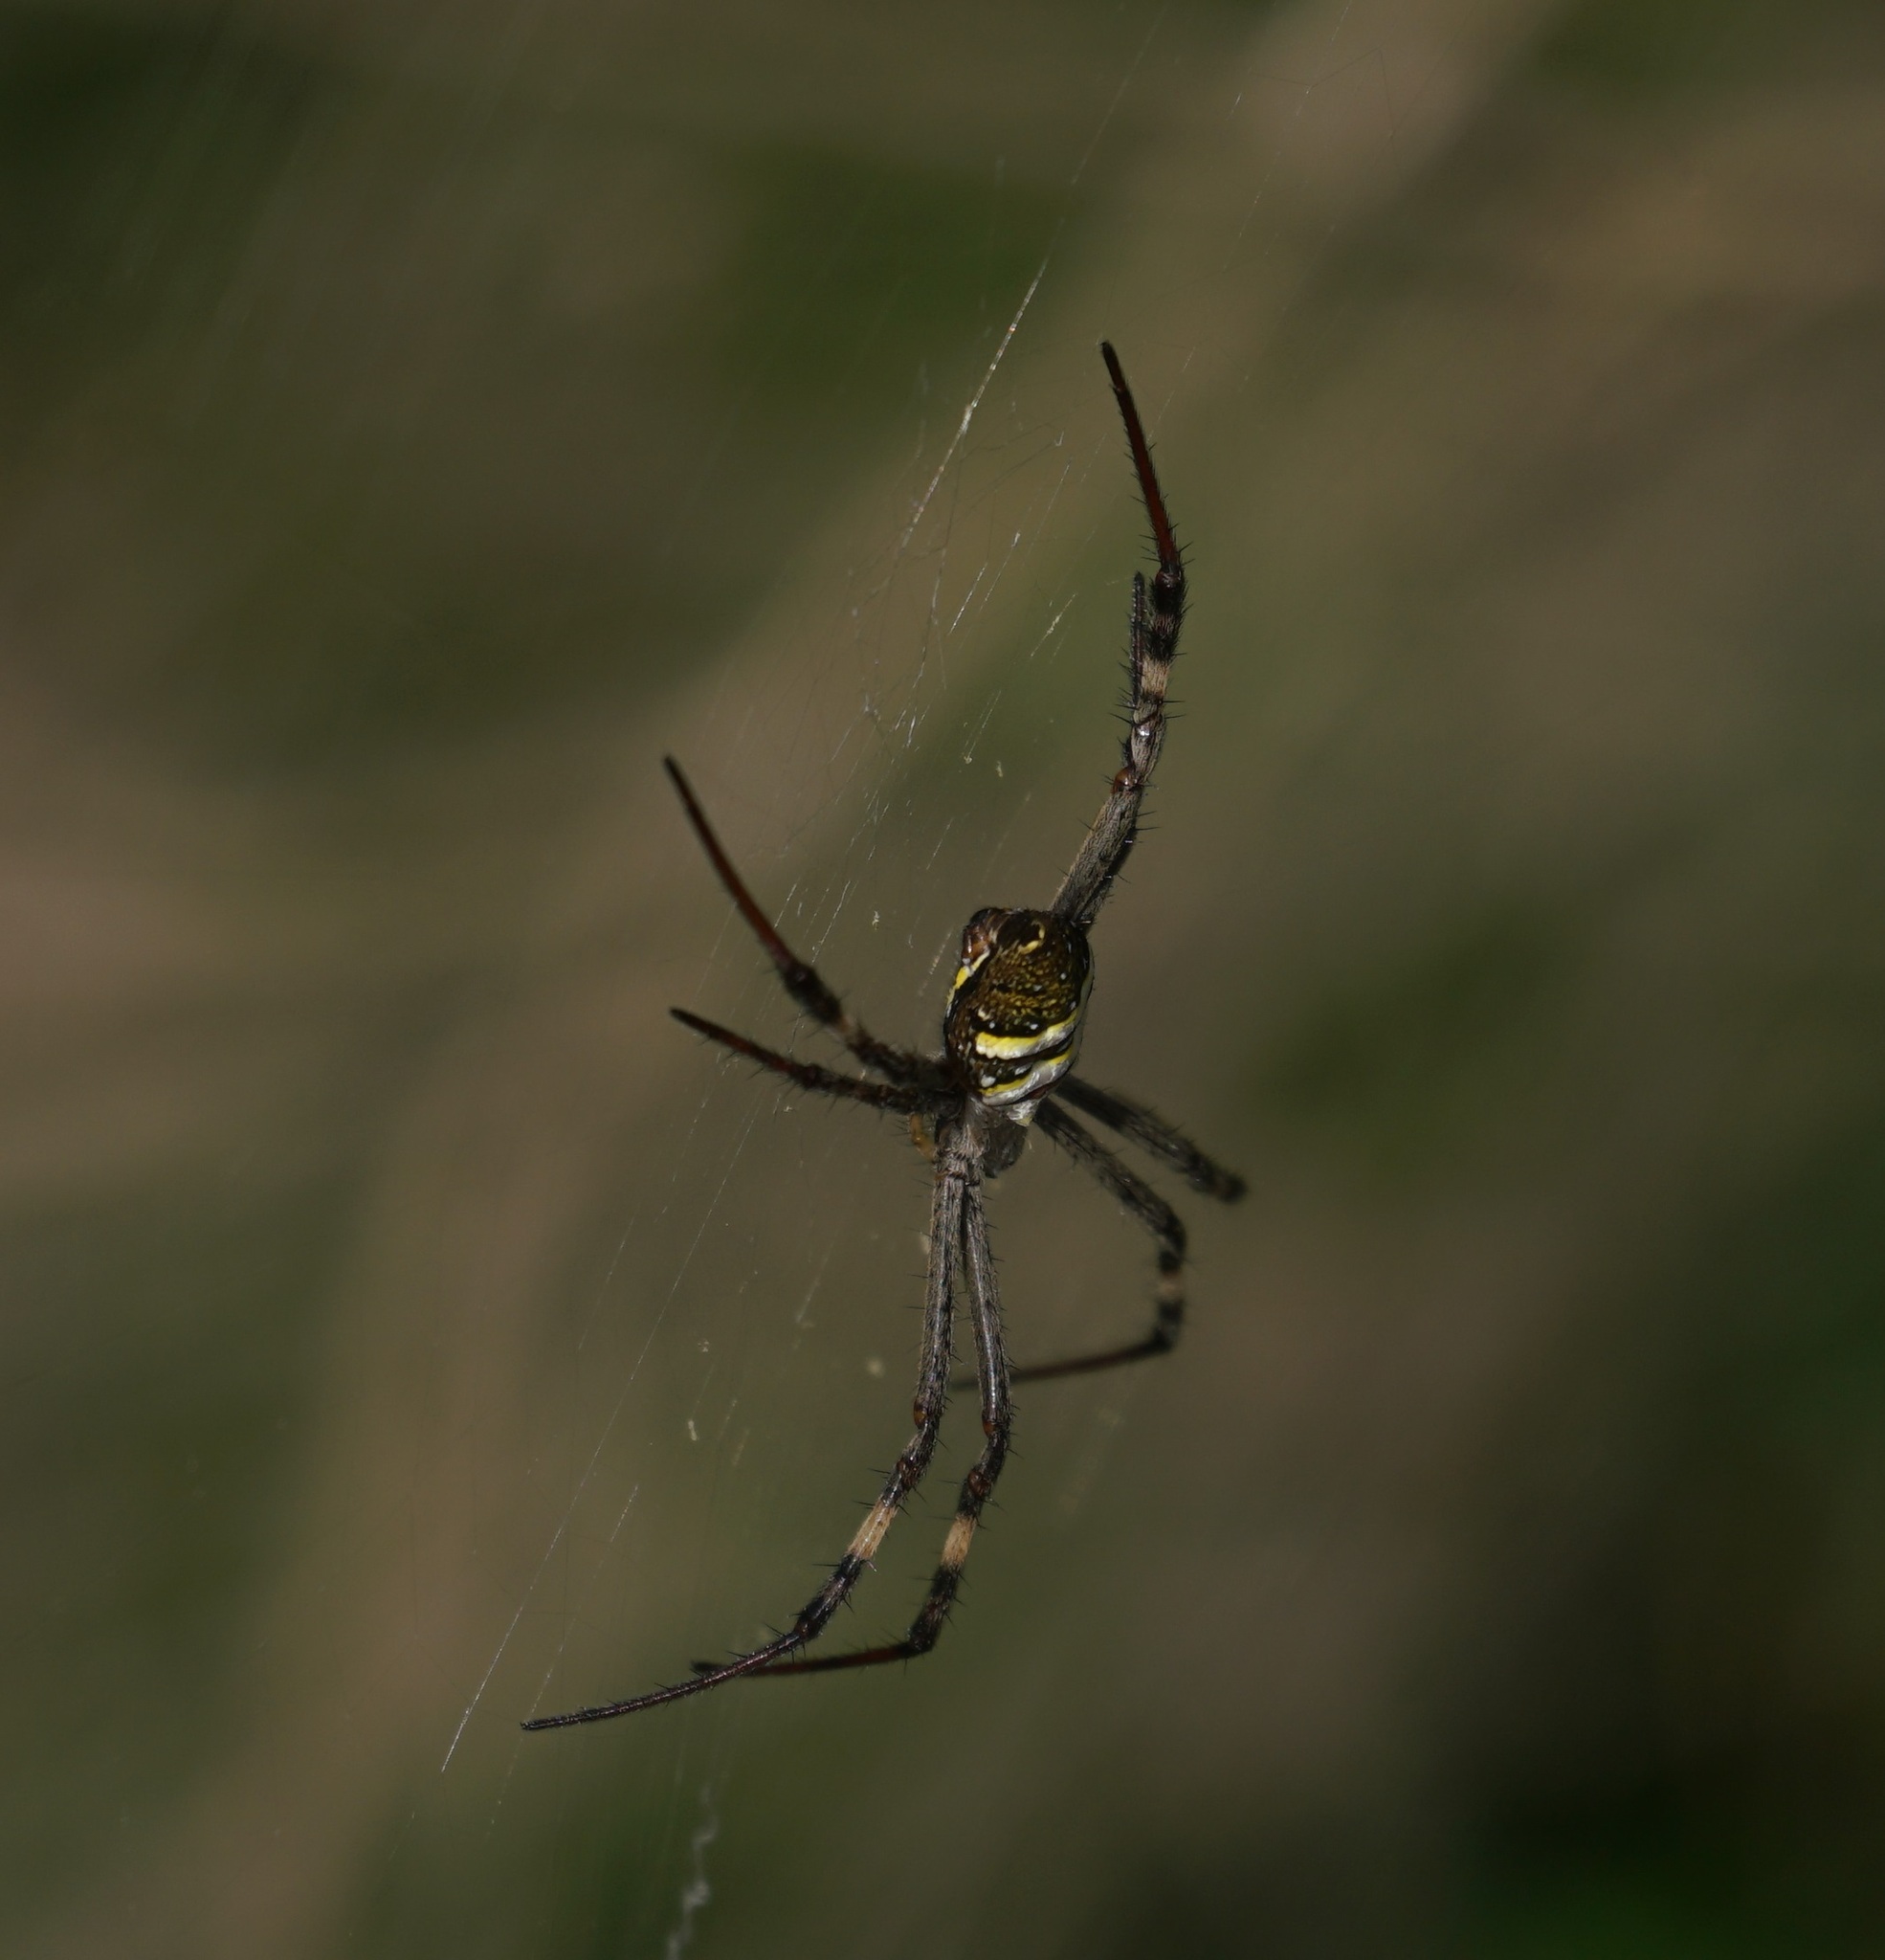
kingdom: Animalia
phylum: Arthropoda
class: Arachnida
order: Araneae
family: Araneidae
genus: Argiope
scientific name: Argiope keyserlingi
